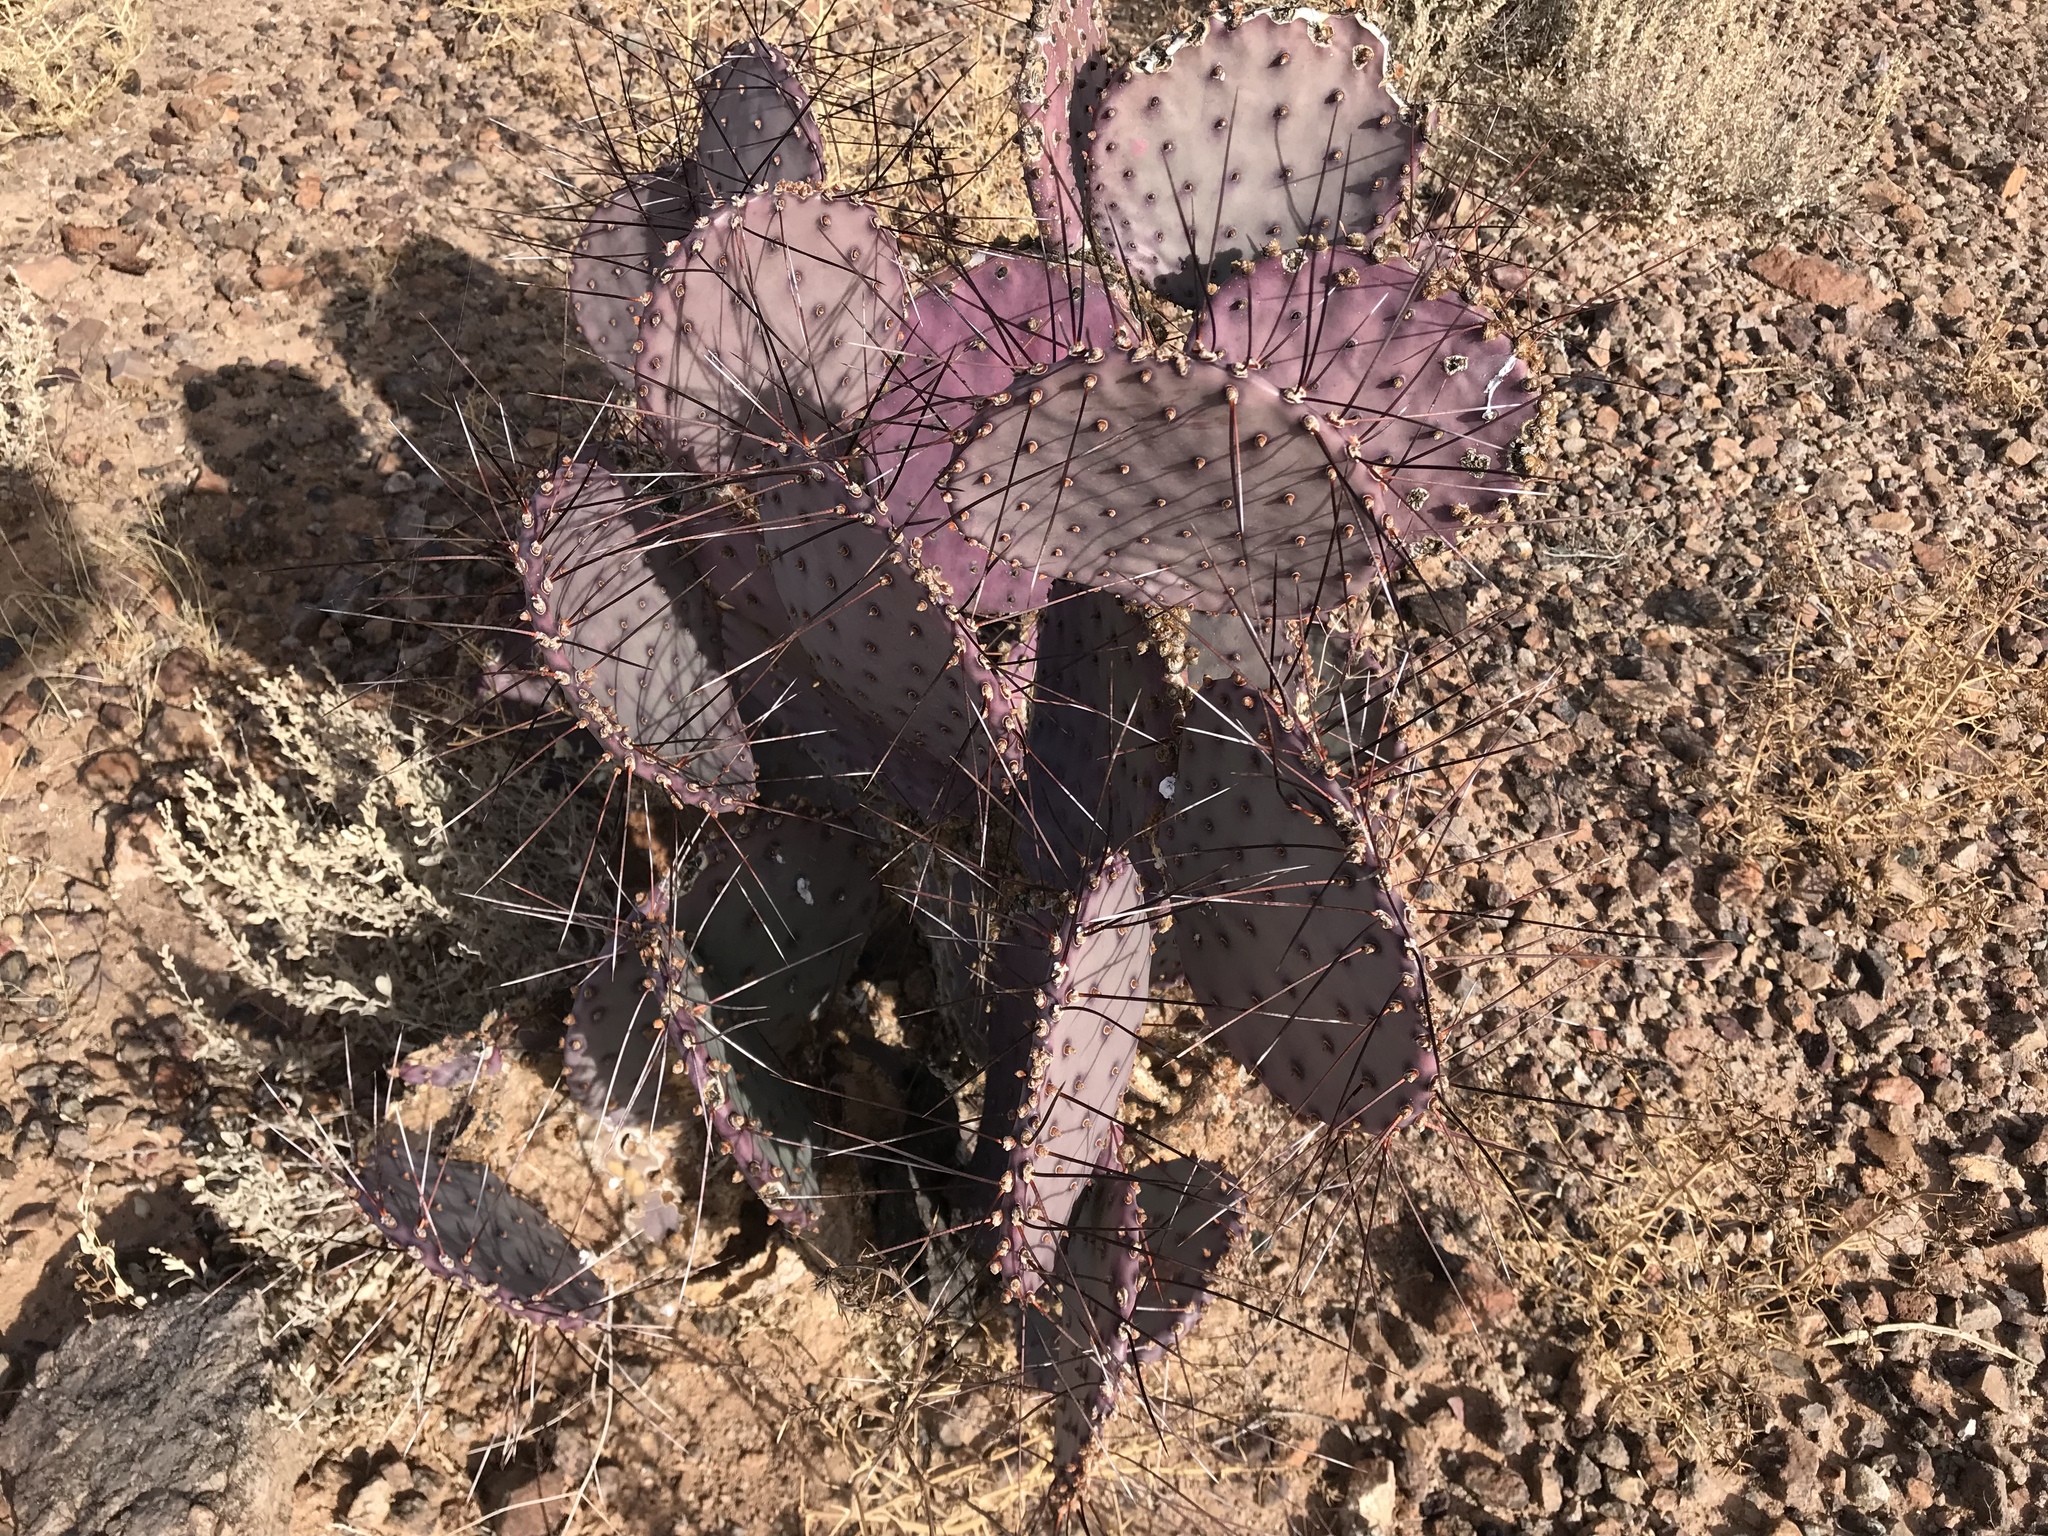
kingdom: Plantae
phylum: Tracheophyta
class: Magnoliopsida
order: Caryophyllales
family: Cactaceae
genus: Opuntia
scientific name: Opuntia macrocentra
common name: Purple prickly-pear
